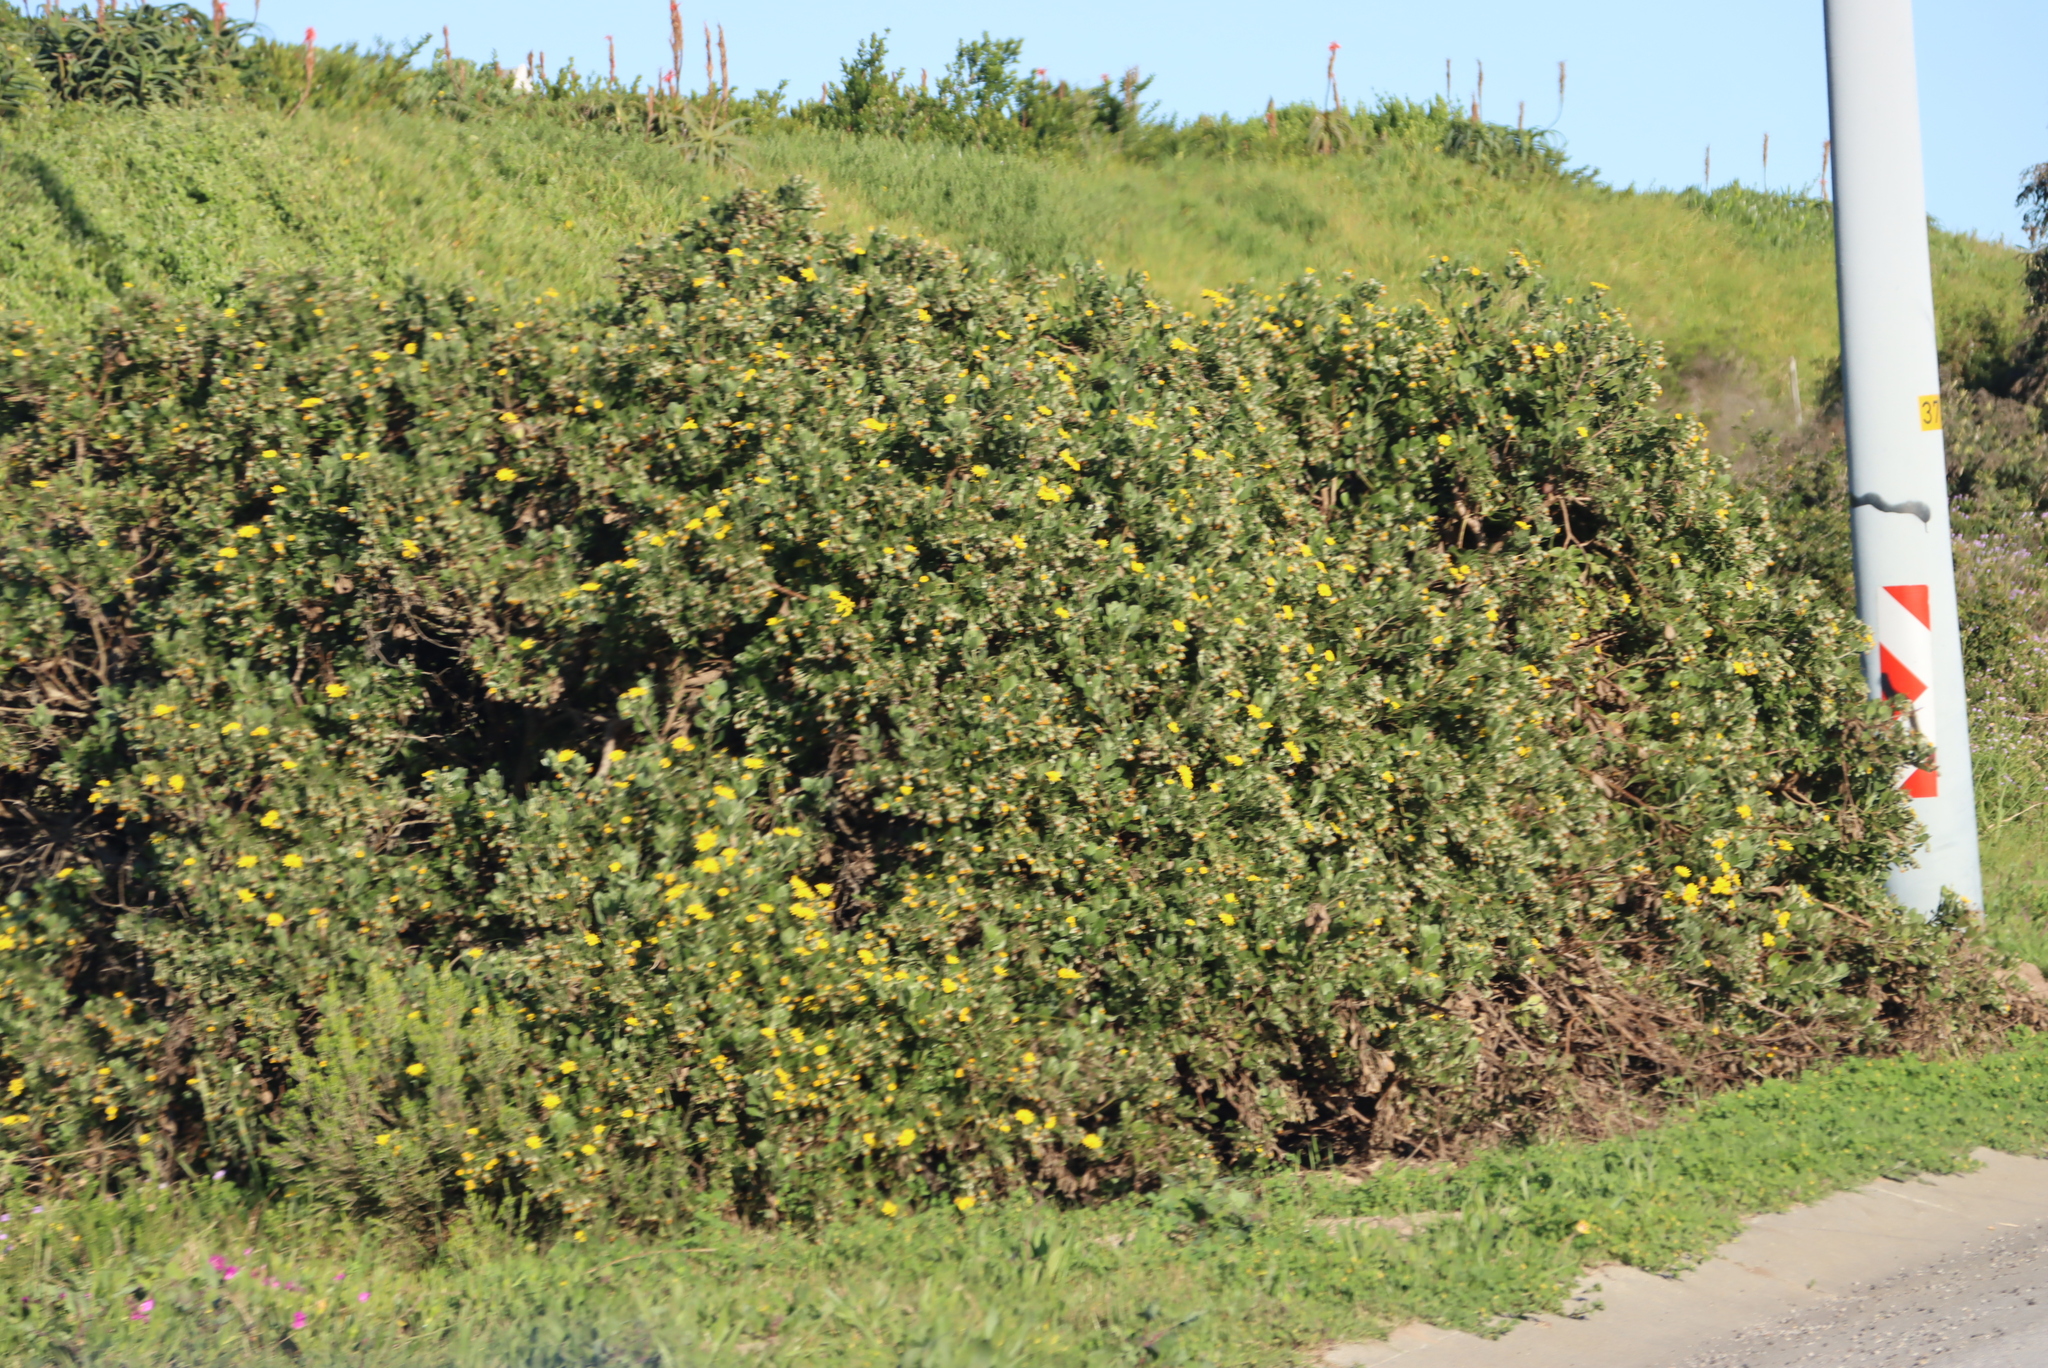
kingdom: Plantae
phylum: Tracheophyta
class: Magnoliopsida
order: Asterales
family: Asteraceae
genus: Osteospermum
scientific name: Osteospermum moniliferum
